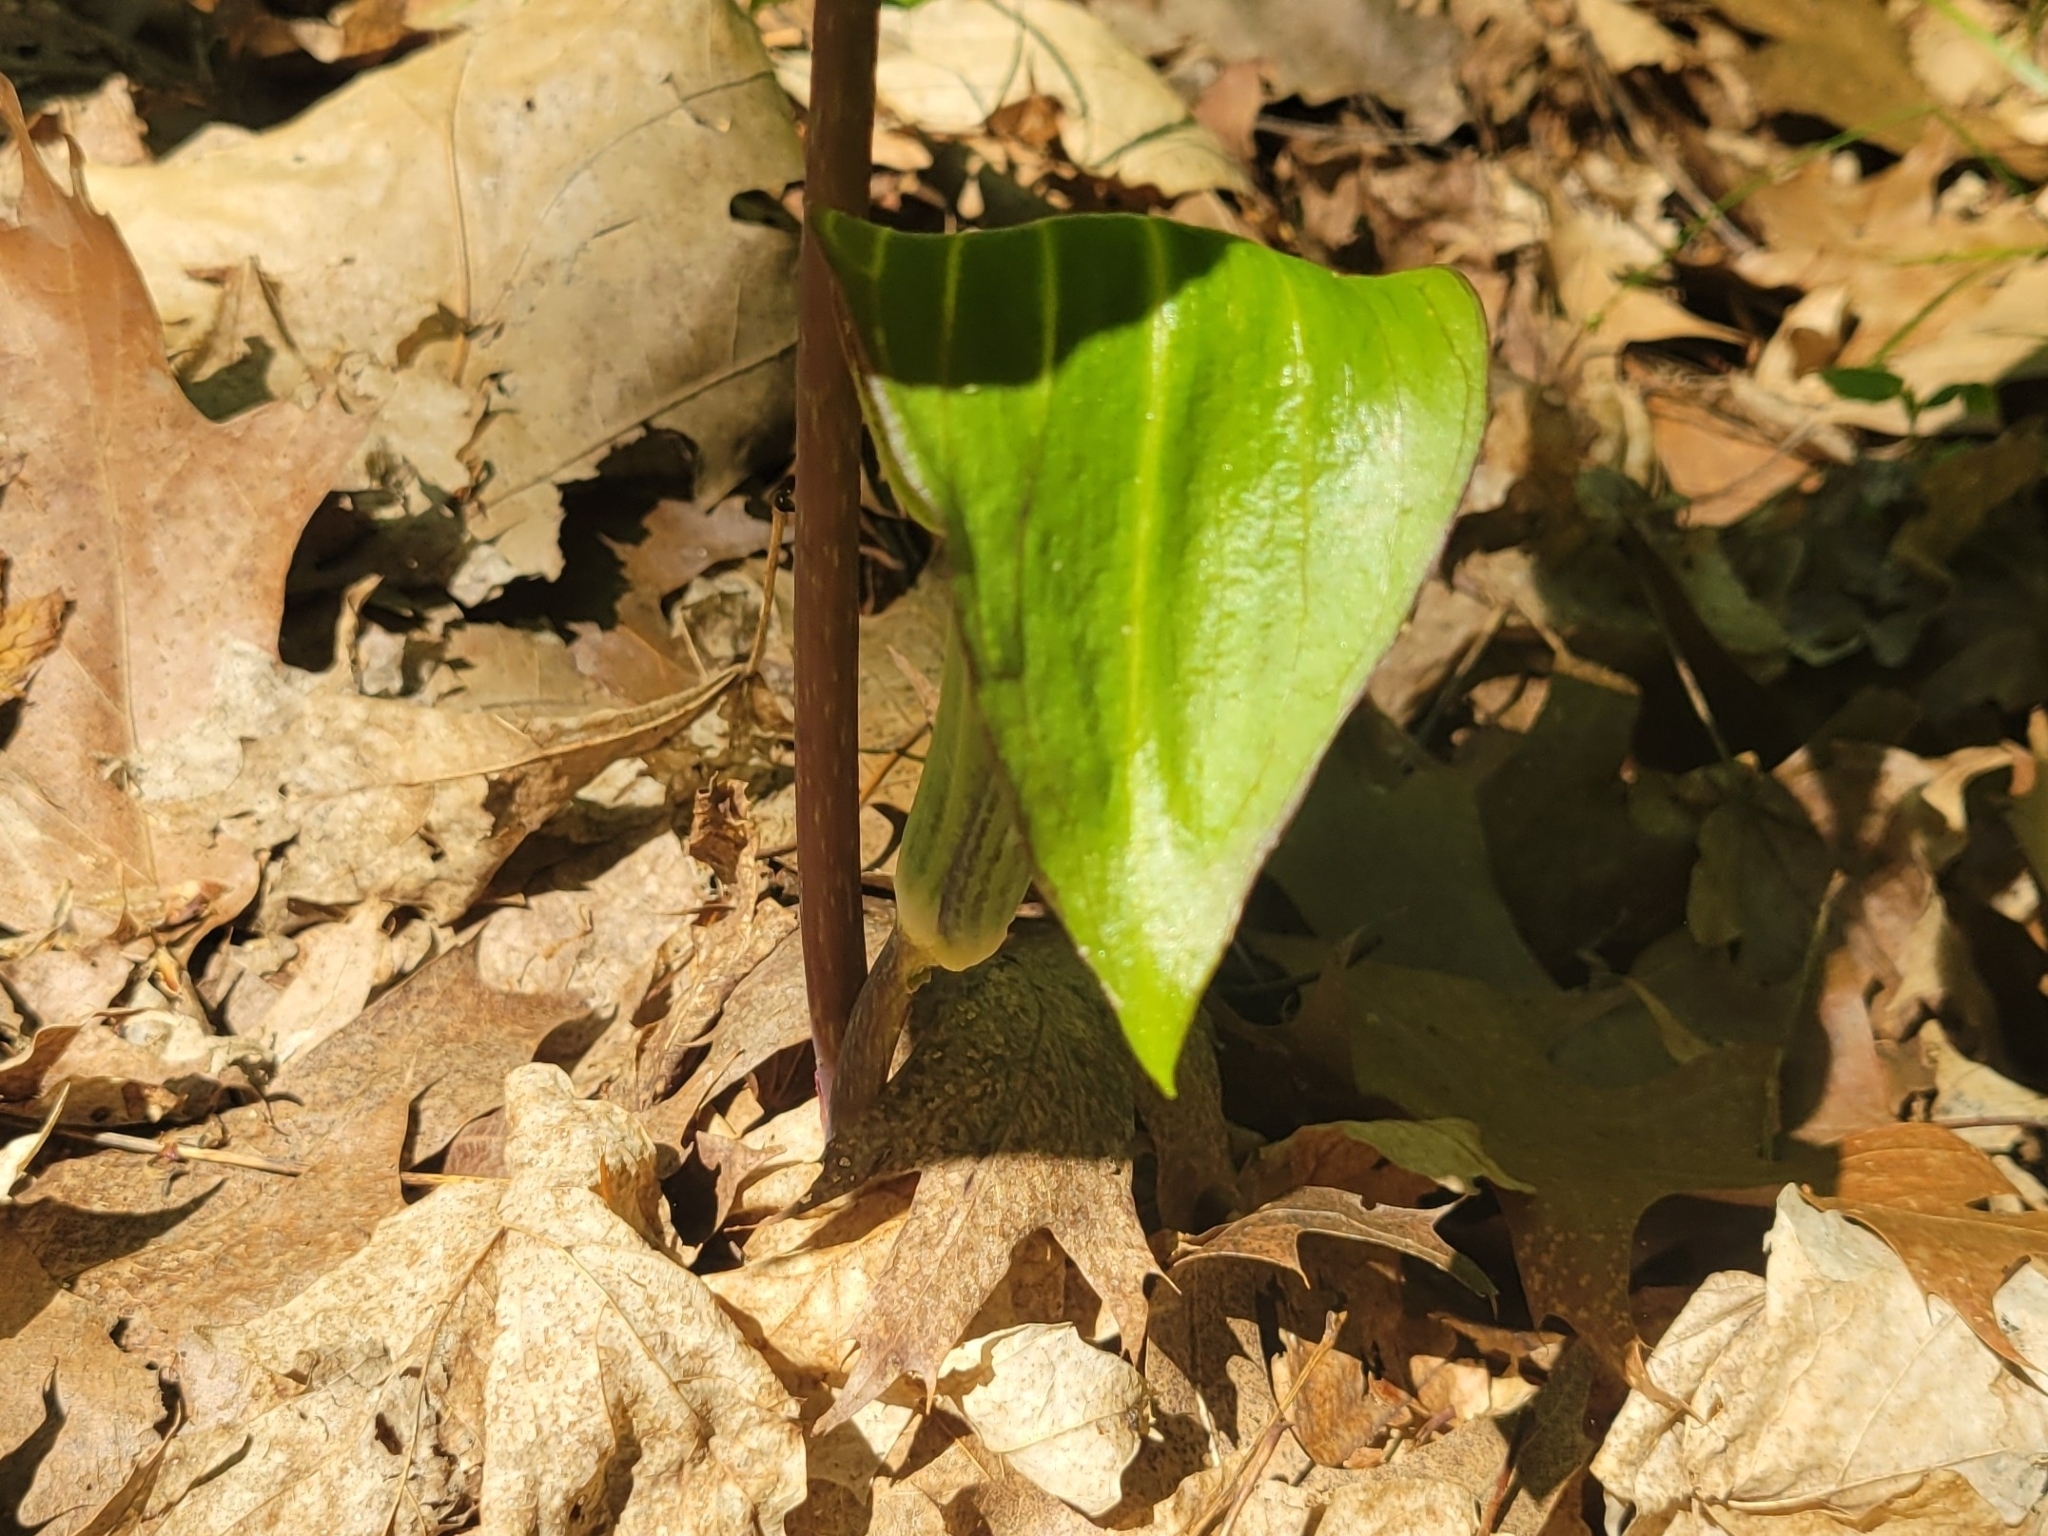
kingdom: Plantae
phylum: Tracheophyta
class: Liliopsida
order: Alismatales
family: Araceae
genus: Arisaema
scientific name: Arisaema triphyllum
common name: Jack-in-the-pulpit
